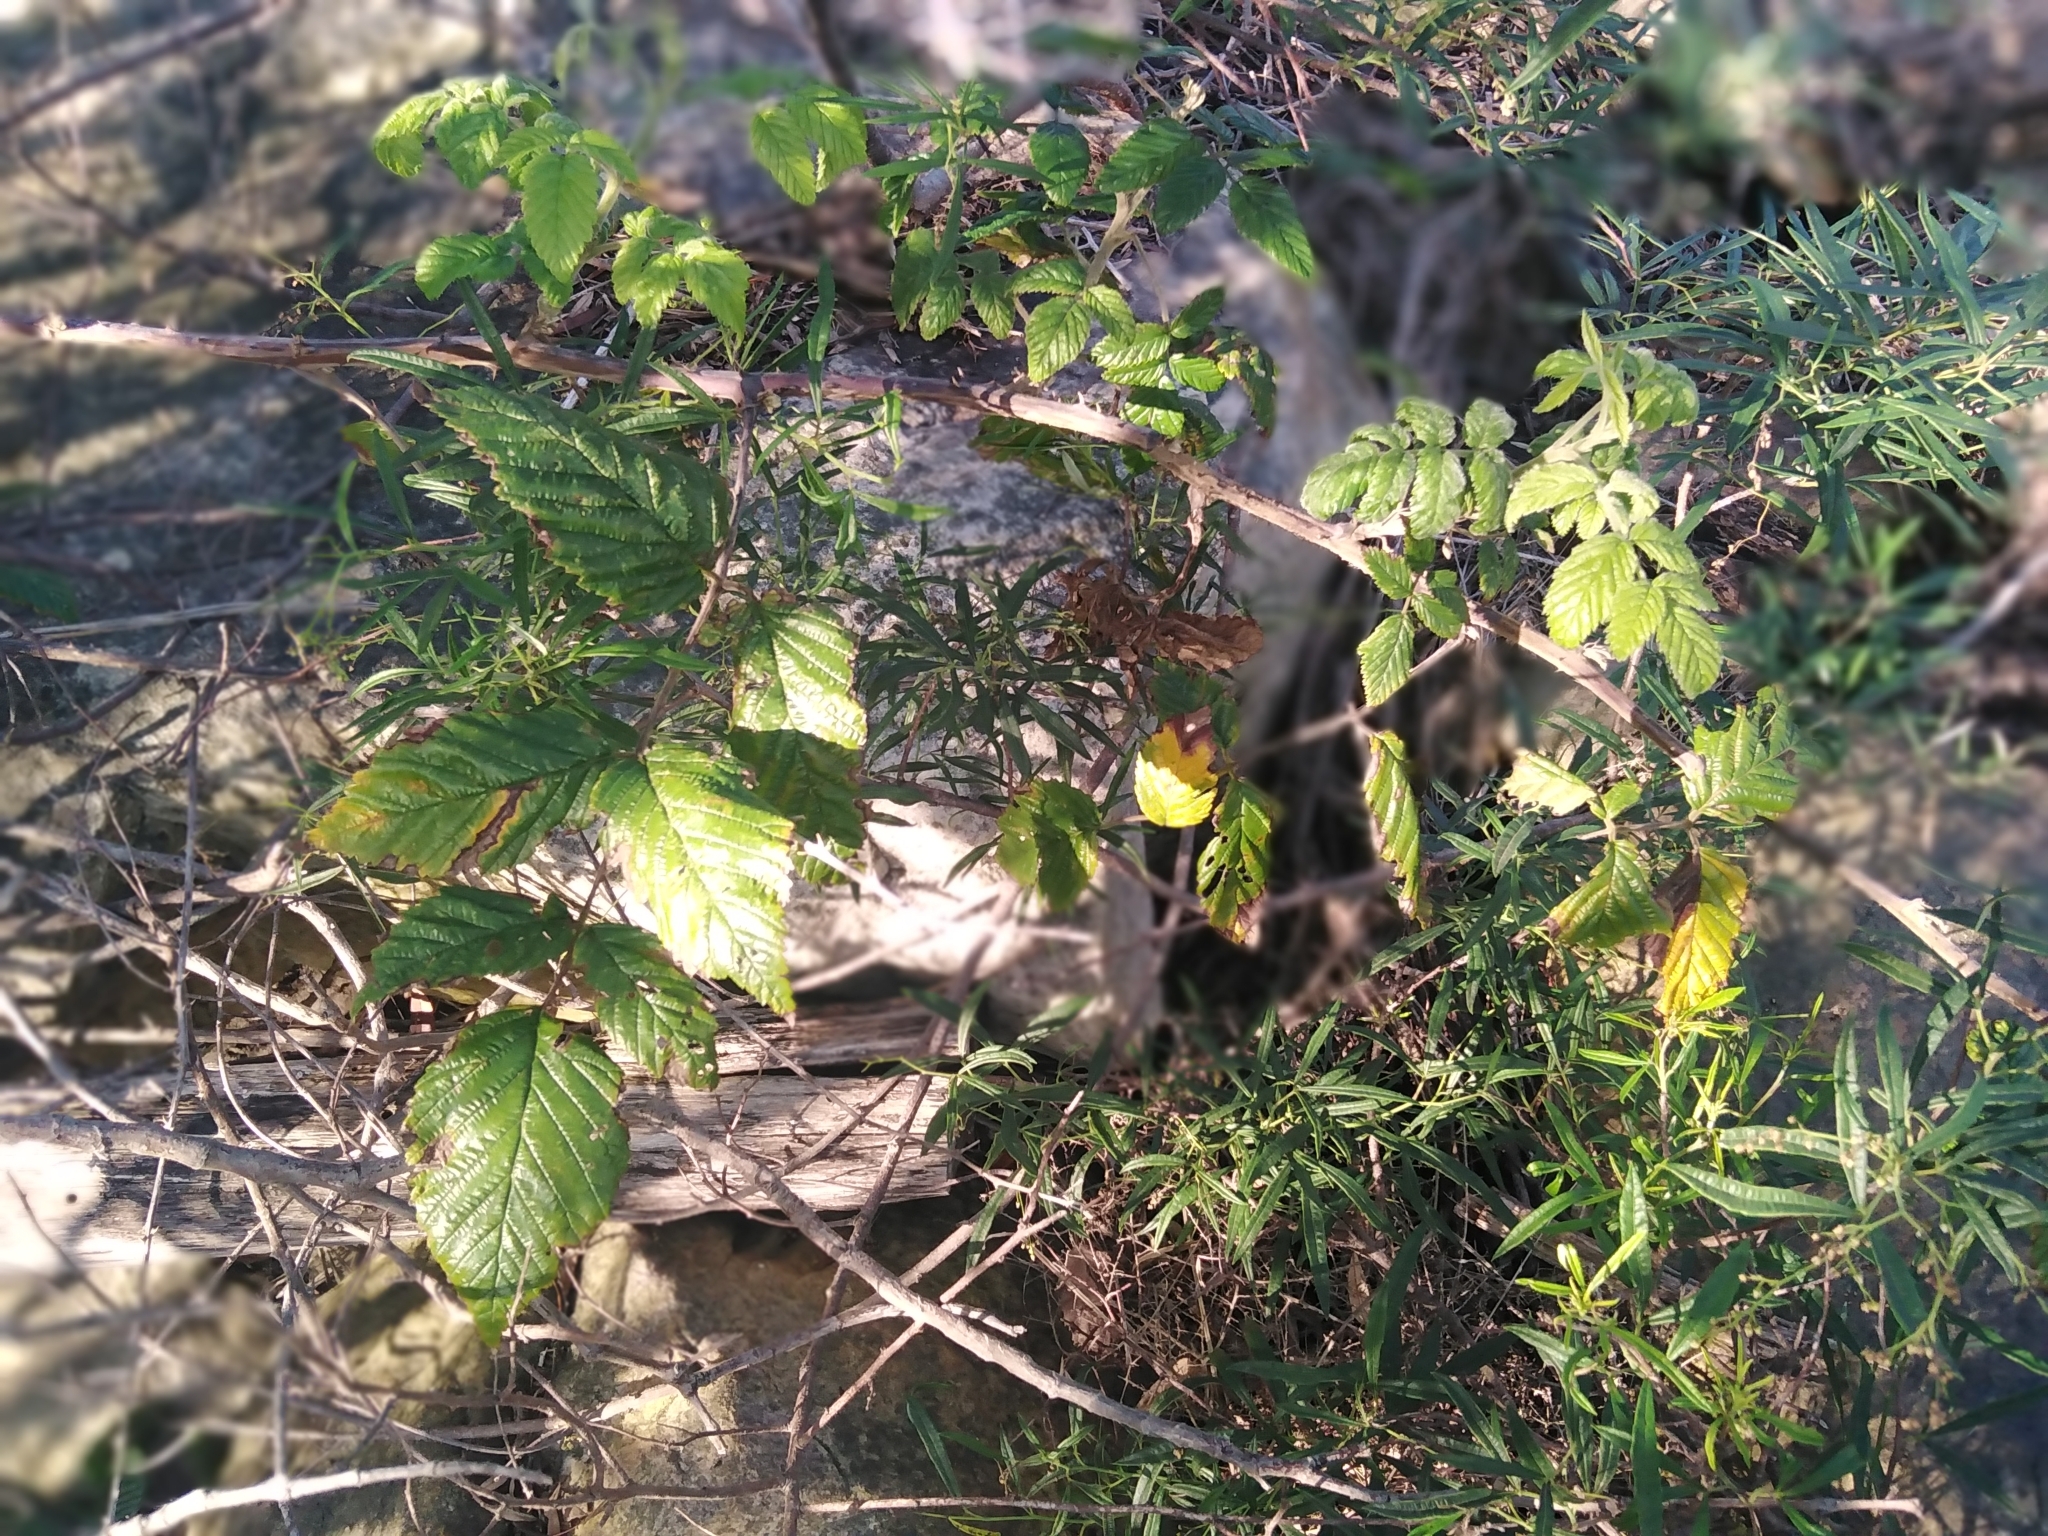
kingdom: Plantae
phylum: Tracheophyta
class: Magnoliopsida
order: Rosales
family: Rosaceae
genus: Rubus
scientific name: Rubus pinnatus
